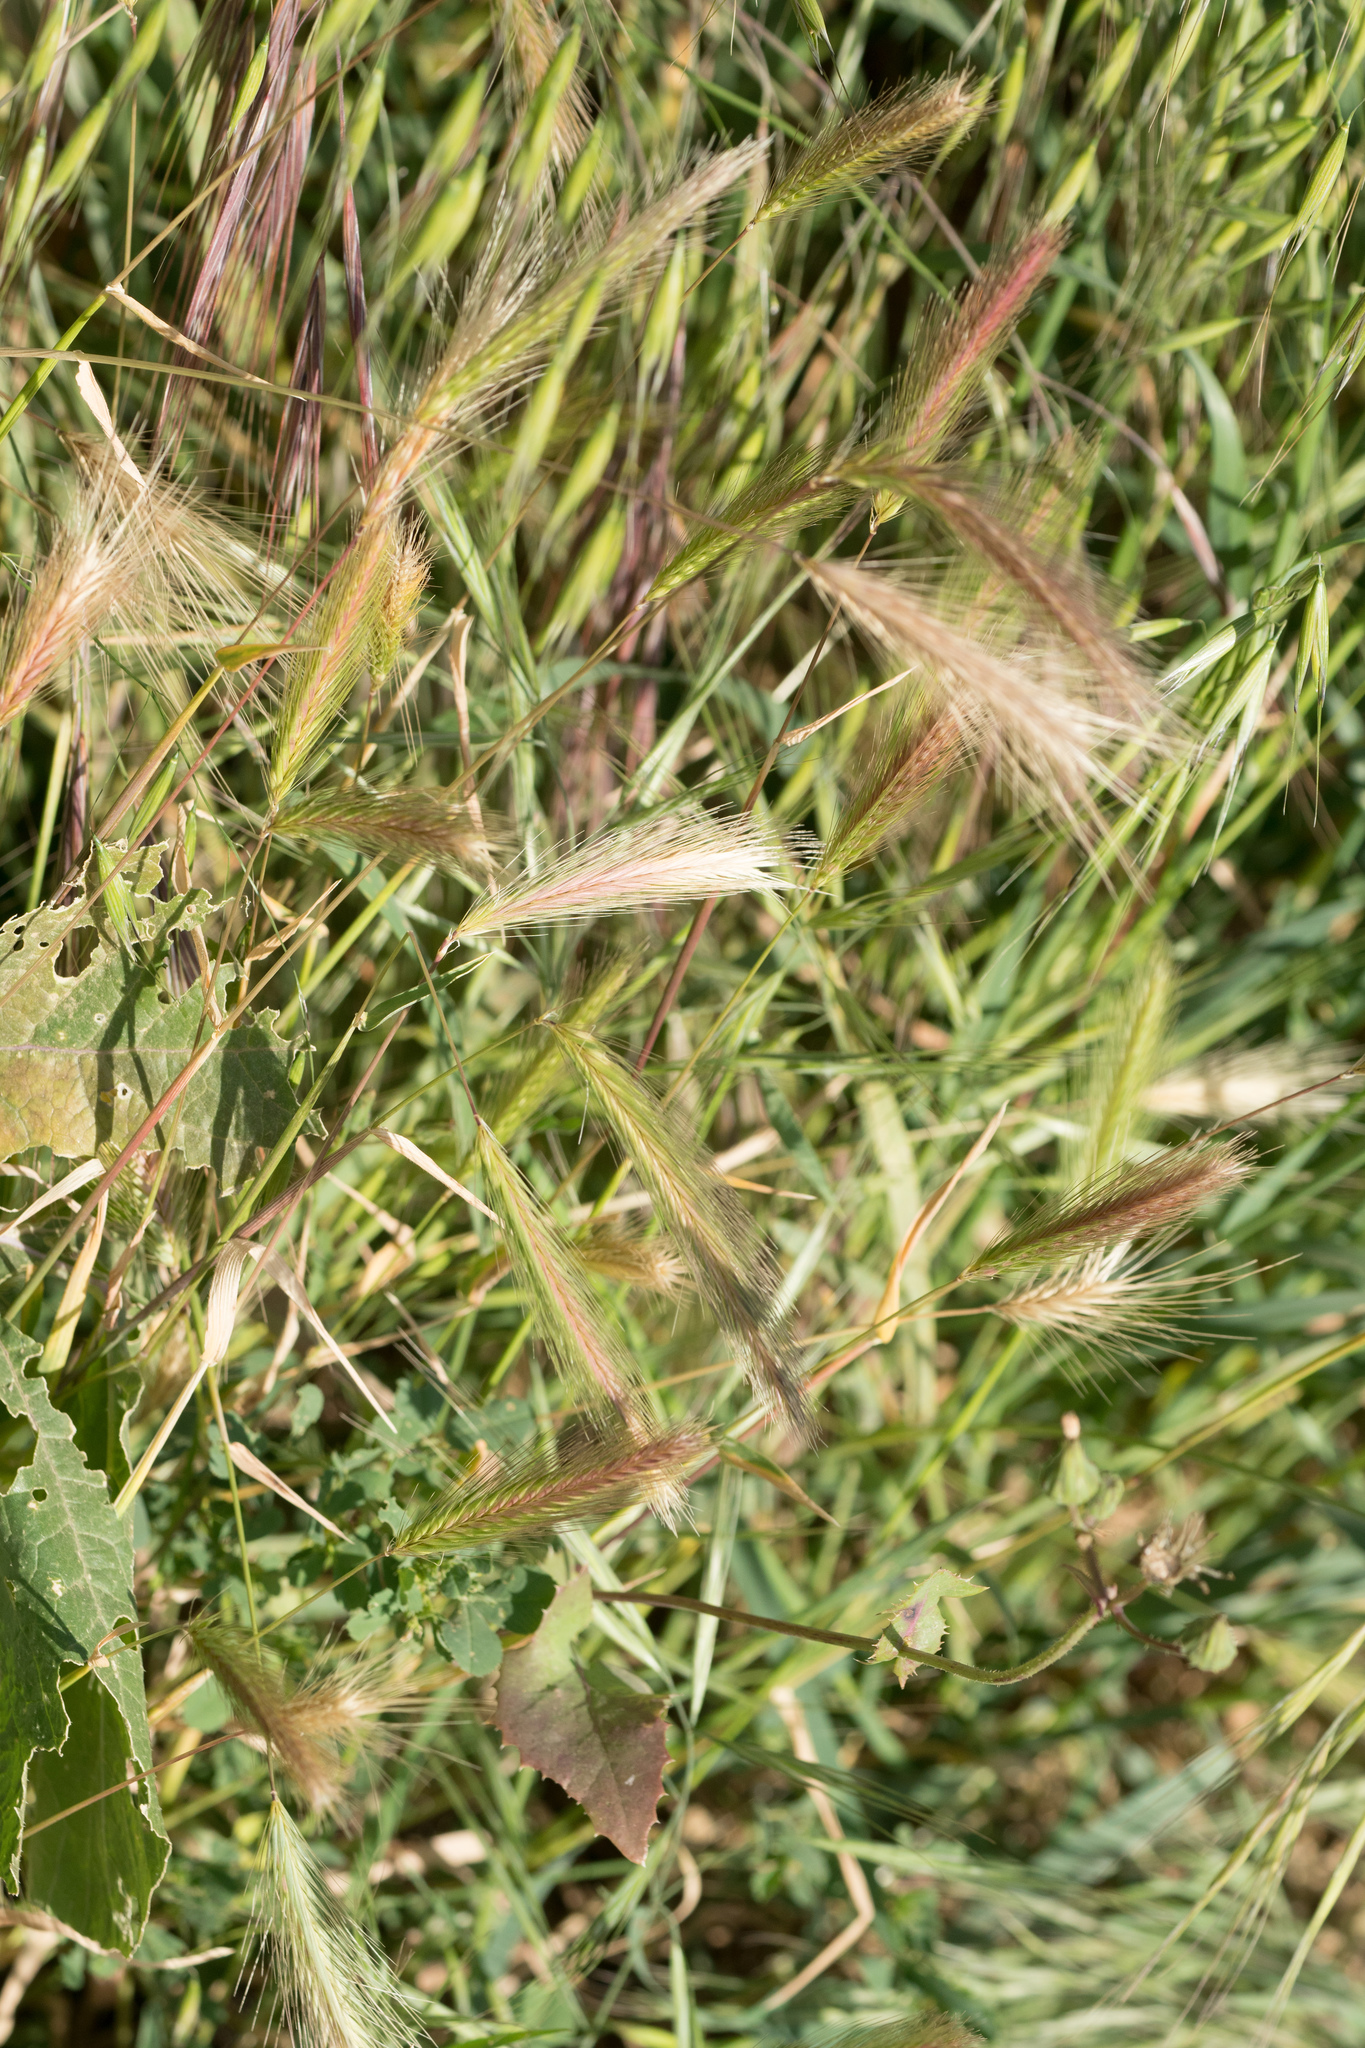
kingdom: Plantae
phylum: Tracheophyta
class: Liliopsida
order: Poales
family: Poaceae
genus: Hordeum
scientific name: Hordeum murinum
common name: Wall barley
